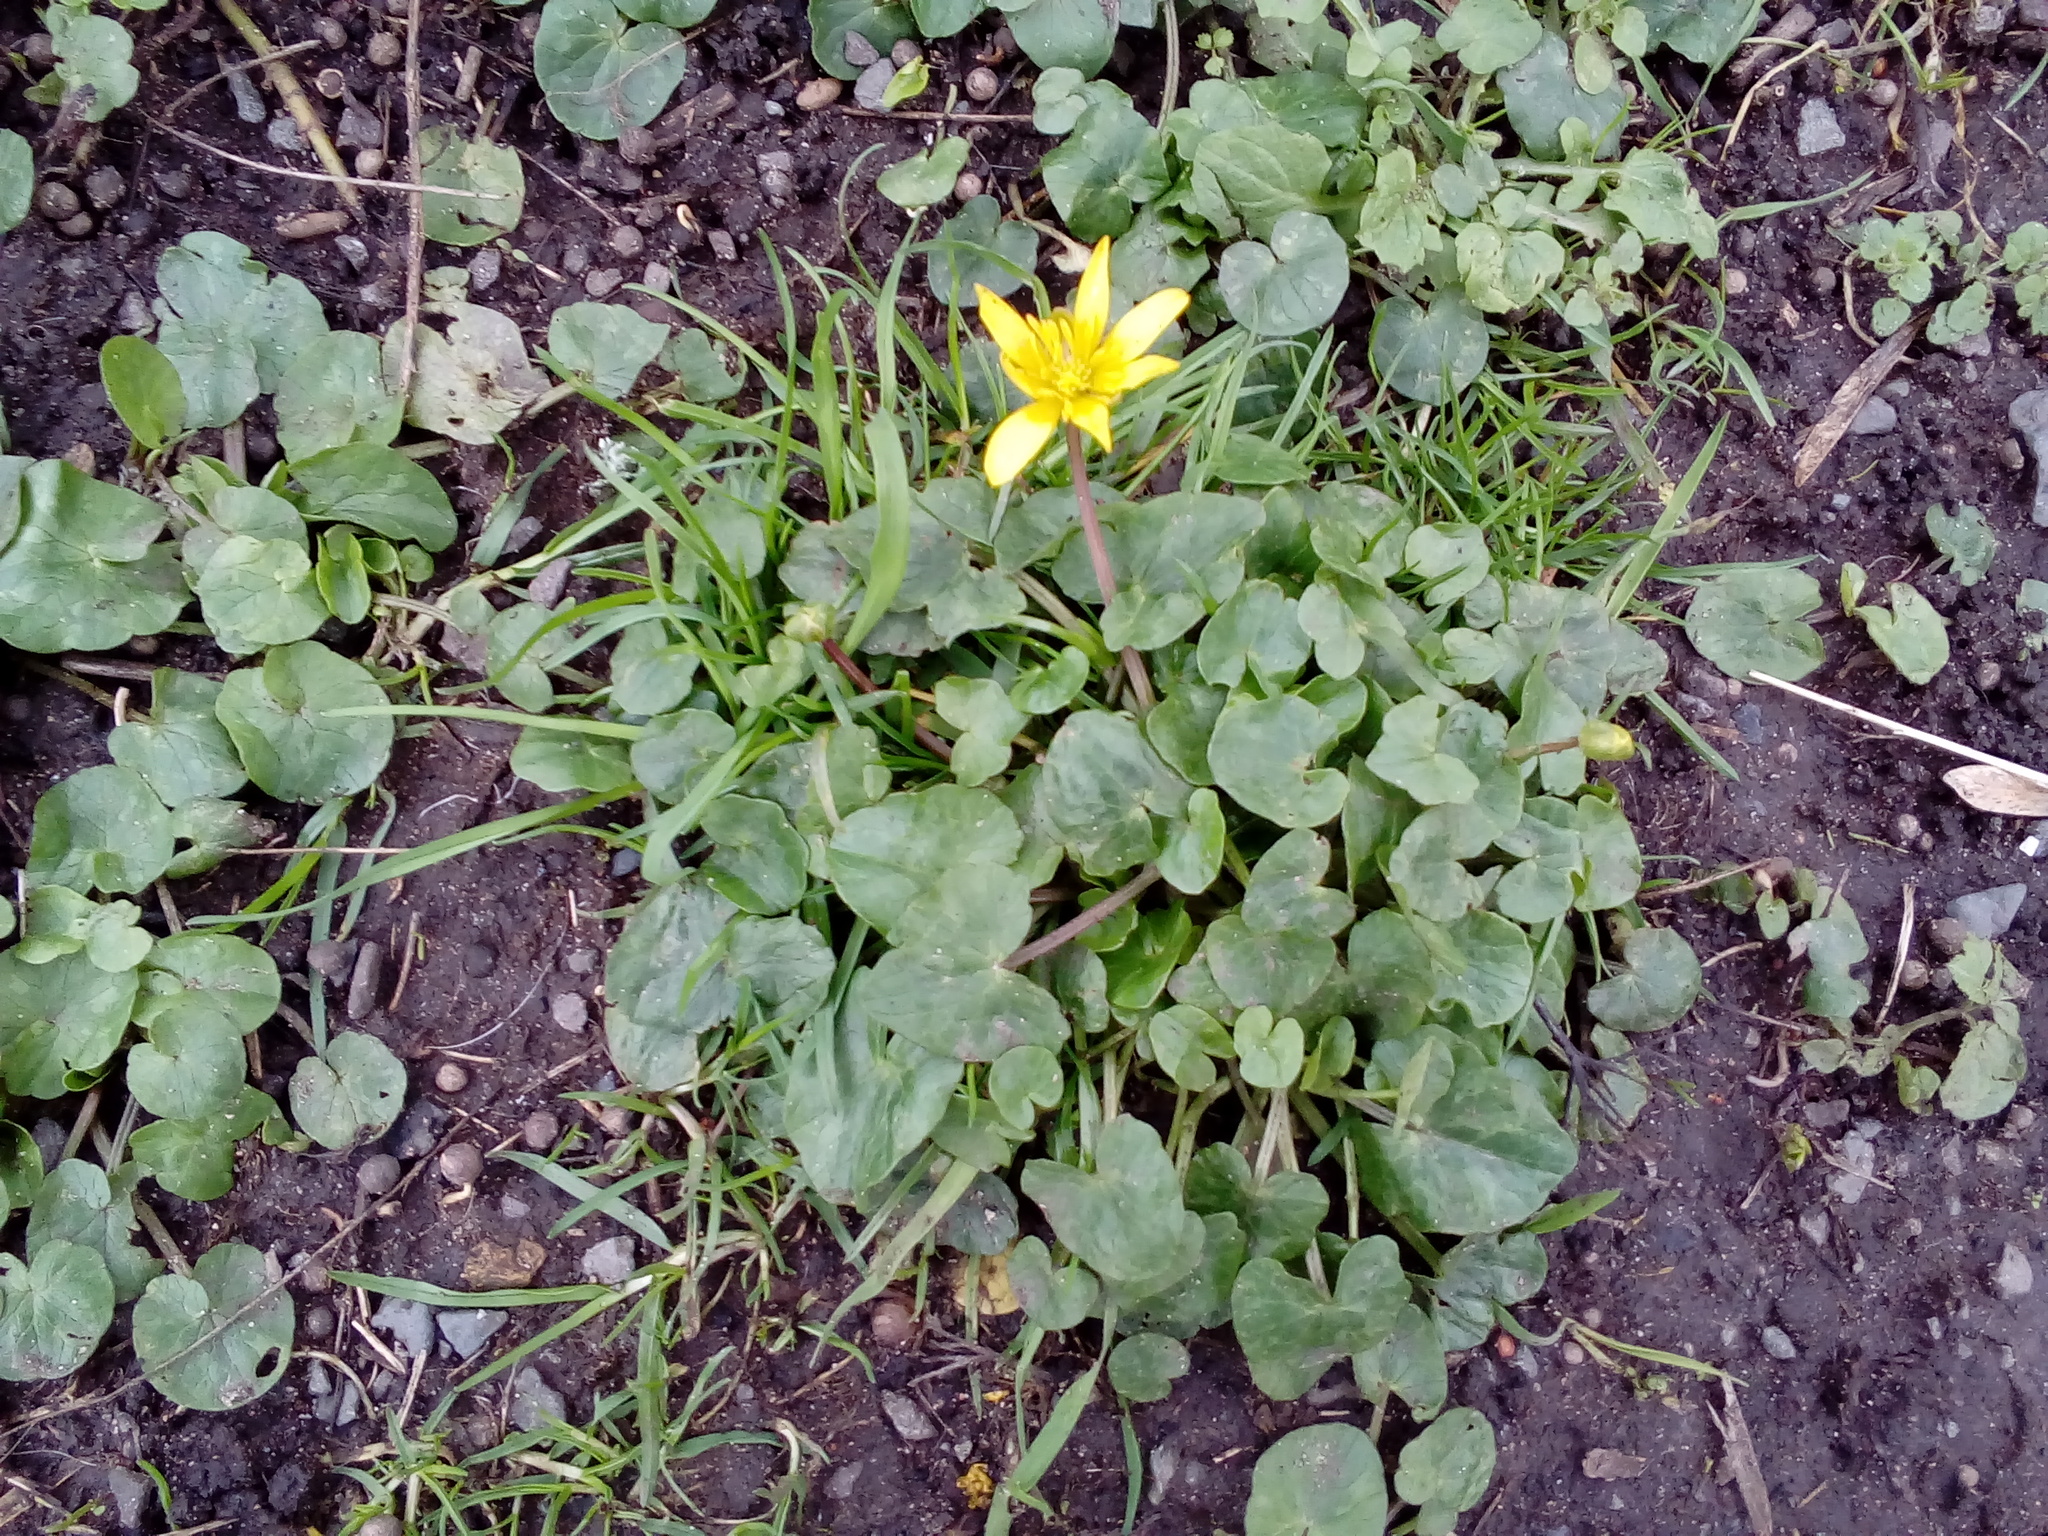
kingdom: Plantae
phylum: Tracheophyta
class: Magnoliopsida
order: Ranunculales
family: Ranunculaceae
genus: Ficaria
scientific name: Ficaria verna
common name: Lesser celandine
